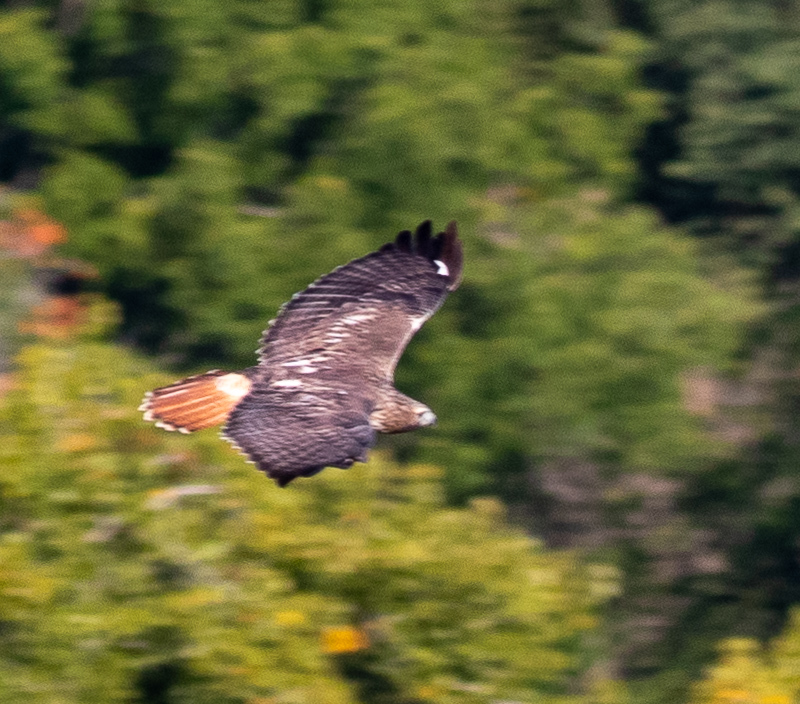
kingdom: Animalia
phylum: Chordata
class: Aves
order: Accipitriformes
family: Accipitridae
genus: Buteo
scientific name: Buteo jamaicensis
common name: Red-tailed hawk
